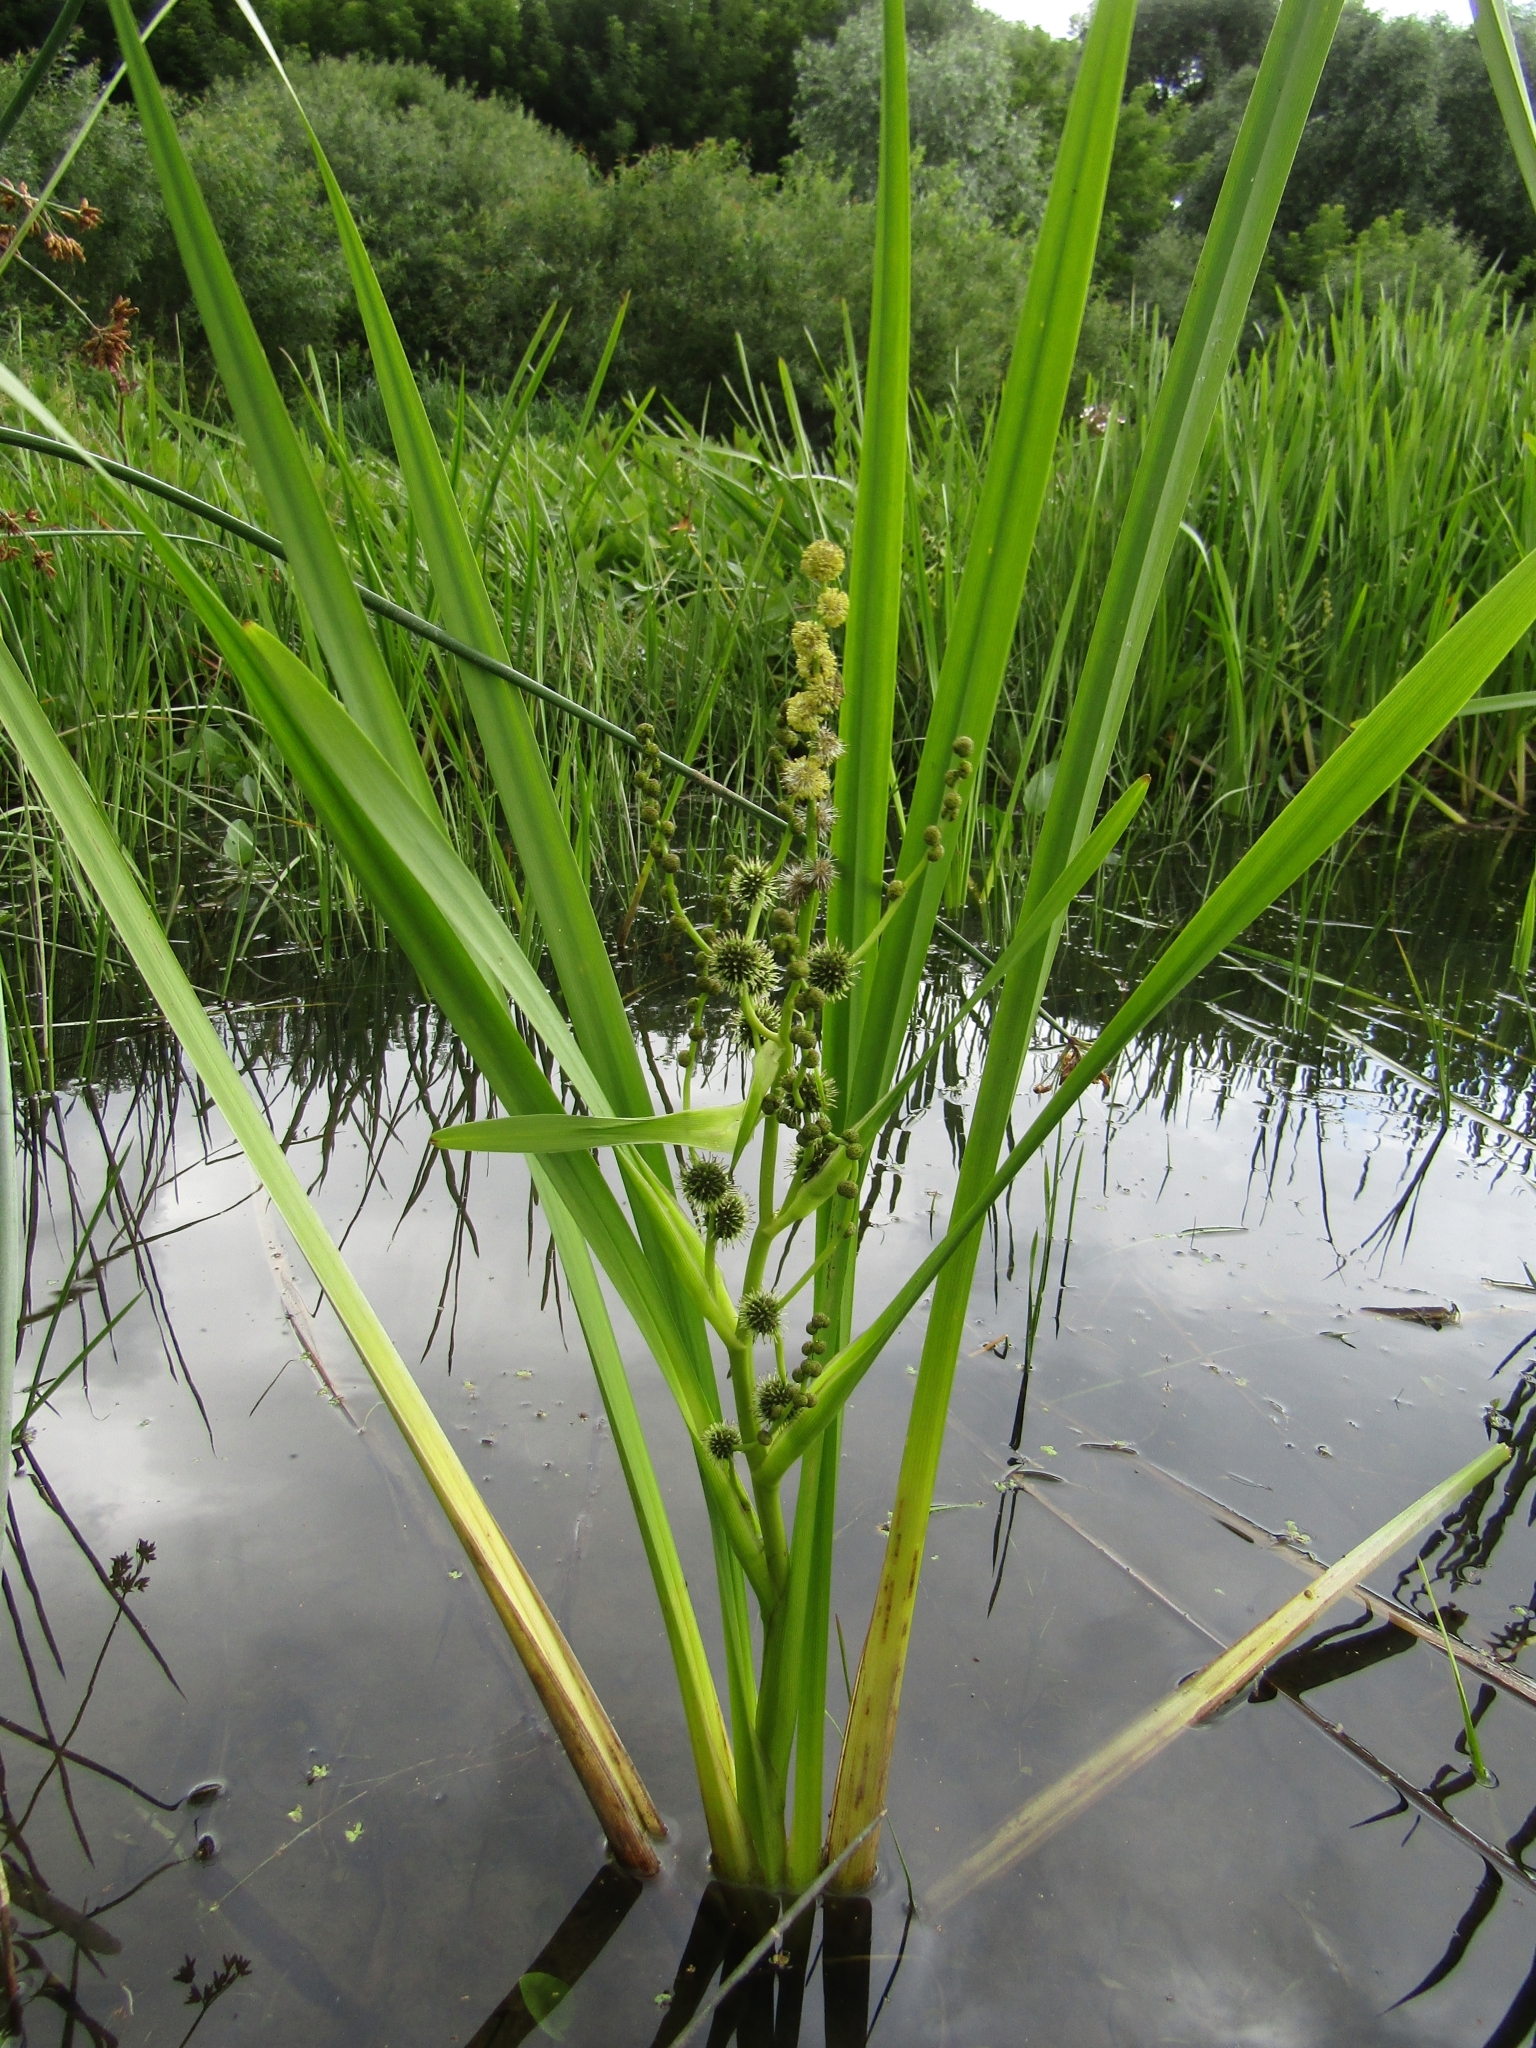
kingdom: Plantae
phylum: Tracheophyta
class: Liliopsida
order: Poales
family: Typhaceae
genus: Sparganium
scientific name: Sparganium erectum
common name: Branched bur-reed
